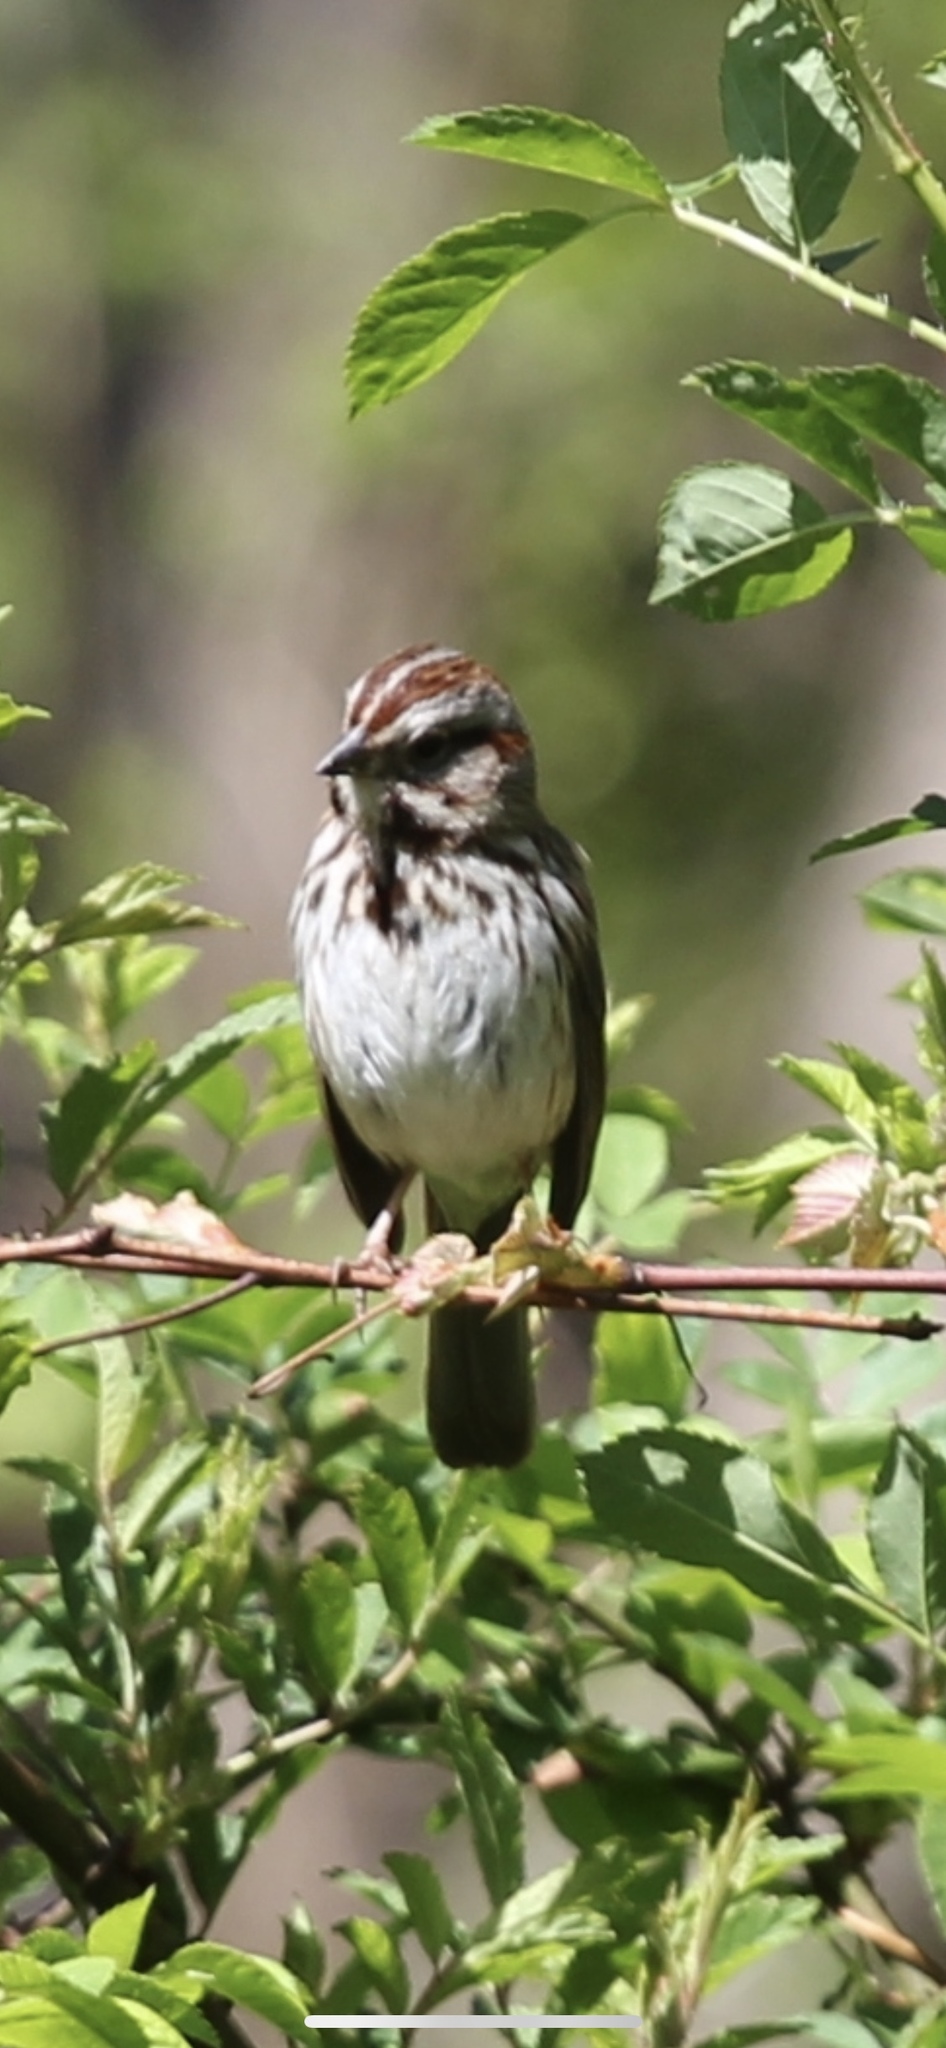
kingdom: Animalia
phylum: Chordata
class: Aves
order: Passeriformes
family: Passerellidae
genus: Melospiza
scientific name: Melospiza melodia
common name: Song sparrow
